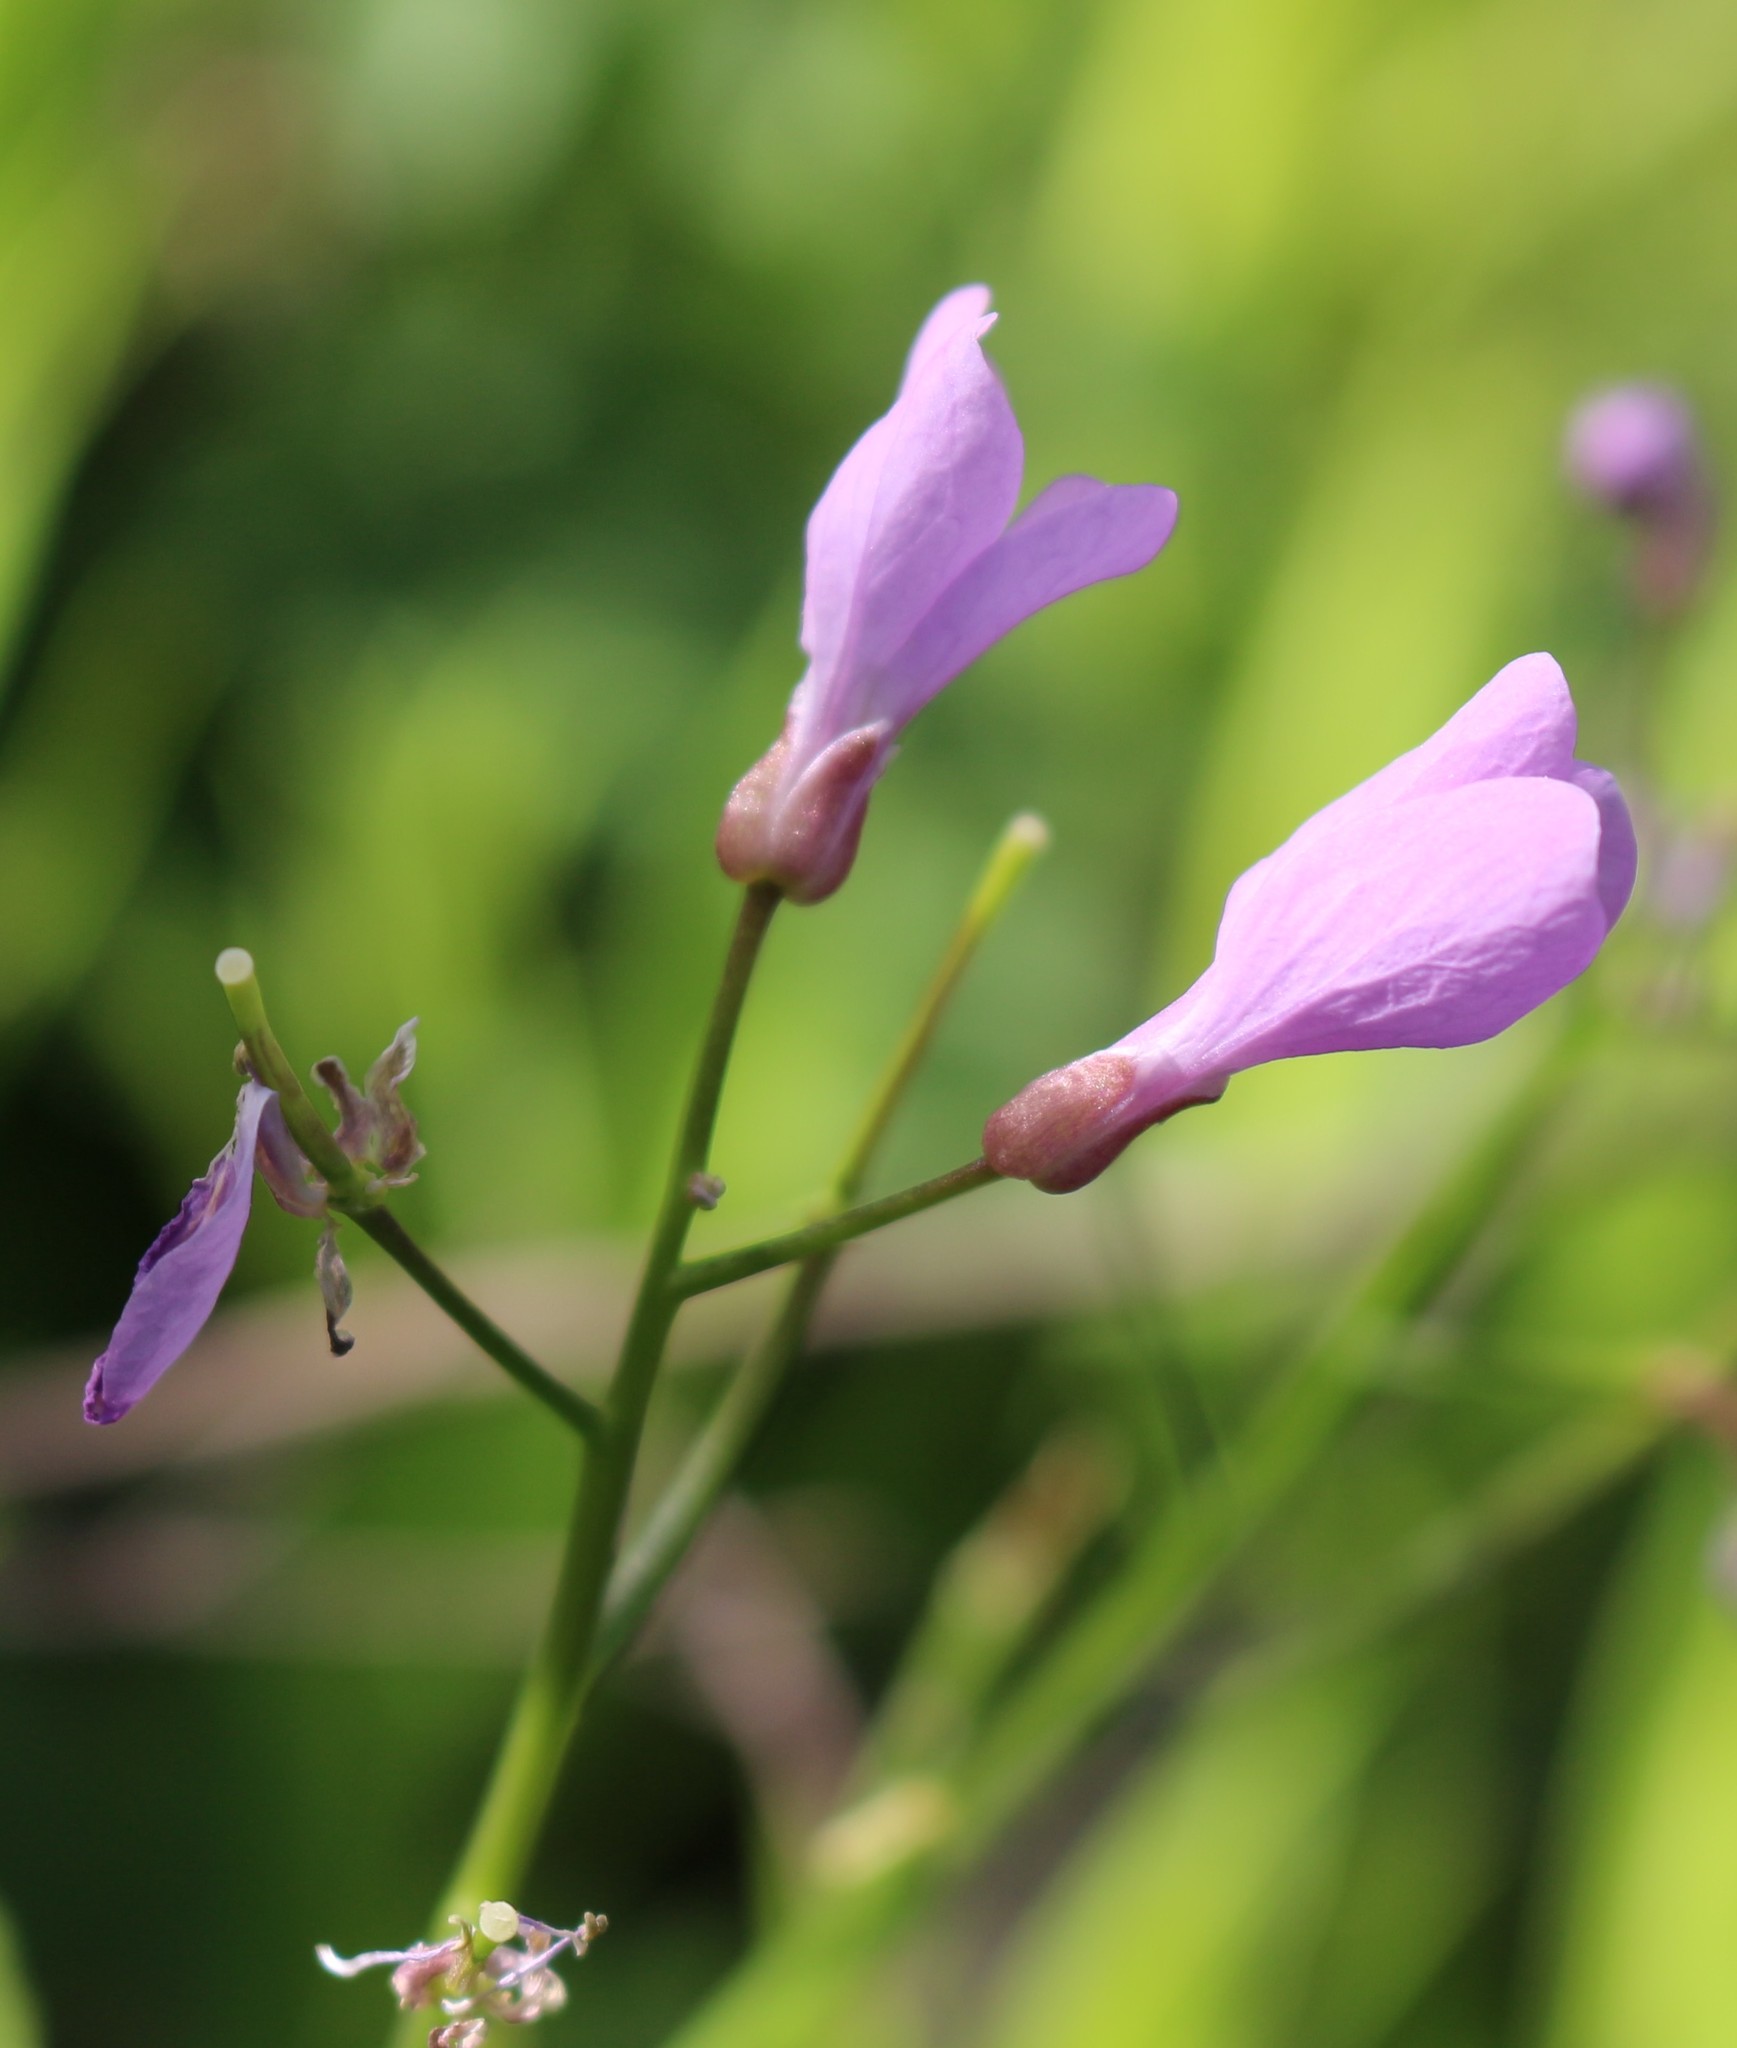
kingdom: Plantae
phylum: Tracheophyta
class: Magnoliopsida
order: Brassicales
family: Brassicaceae
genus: Cardamine
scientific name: Cardamine quinquefolia
